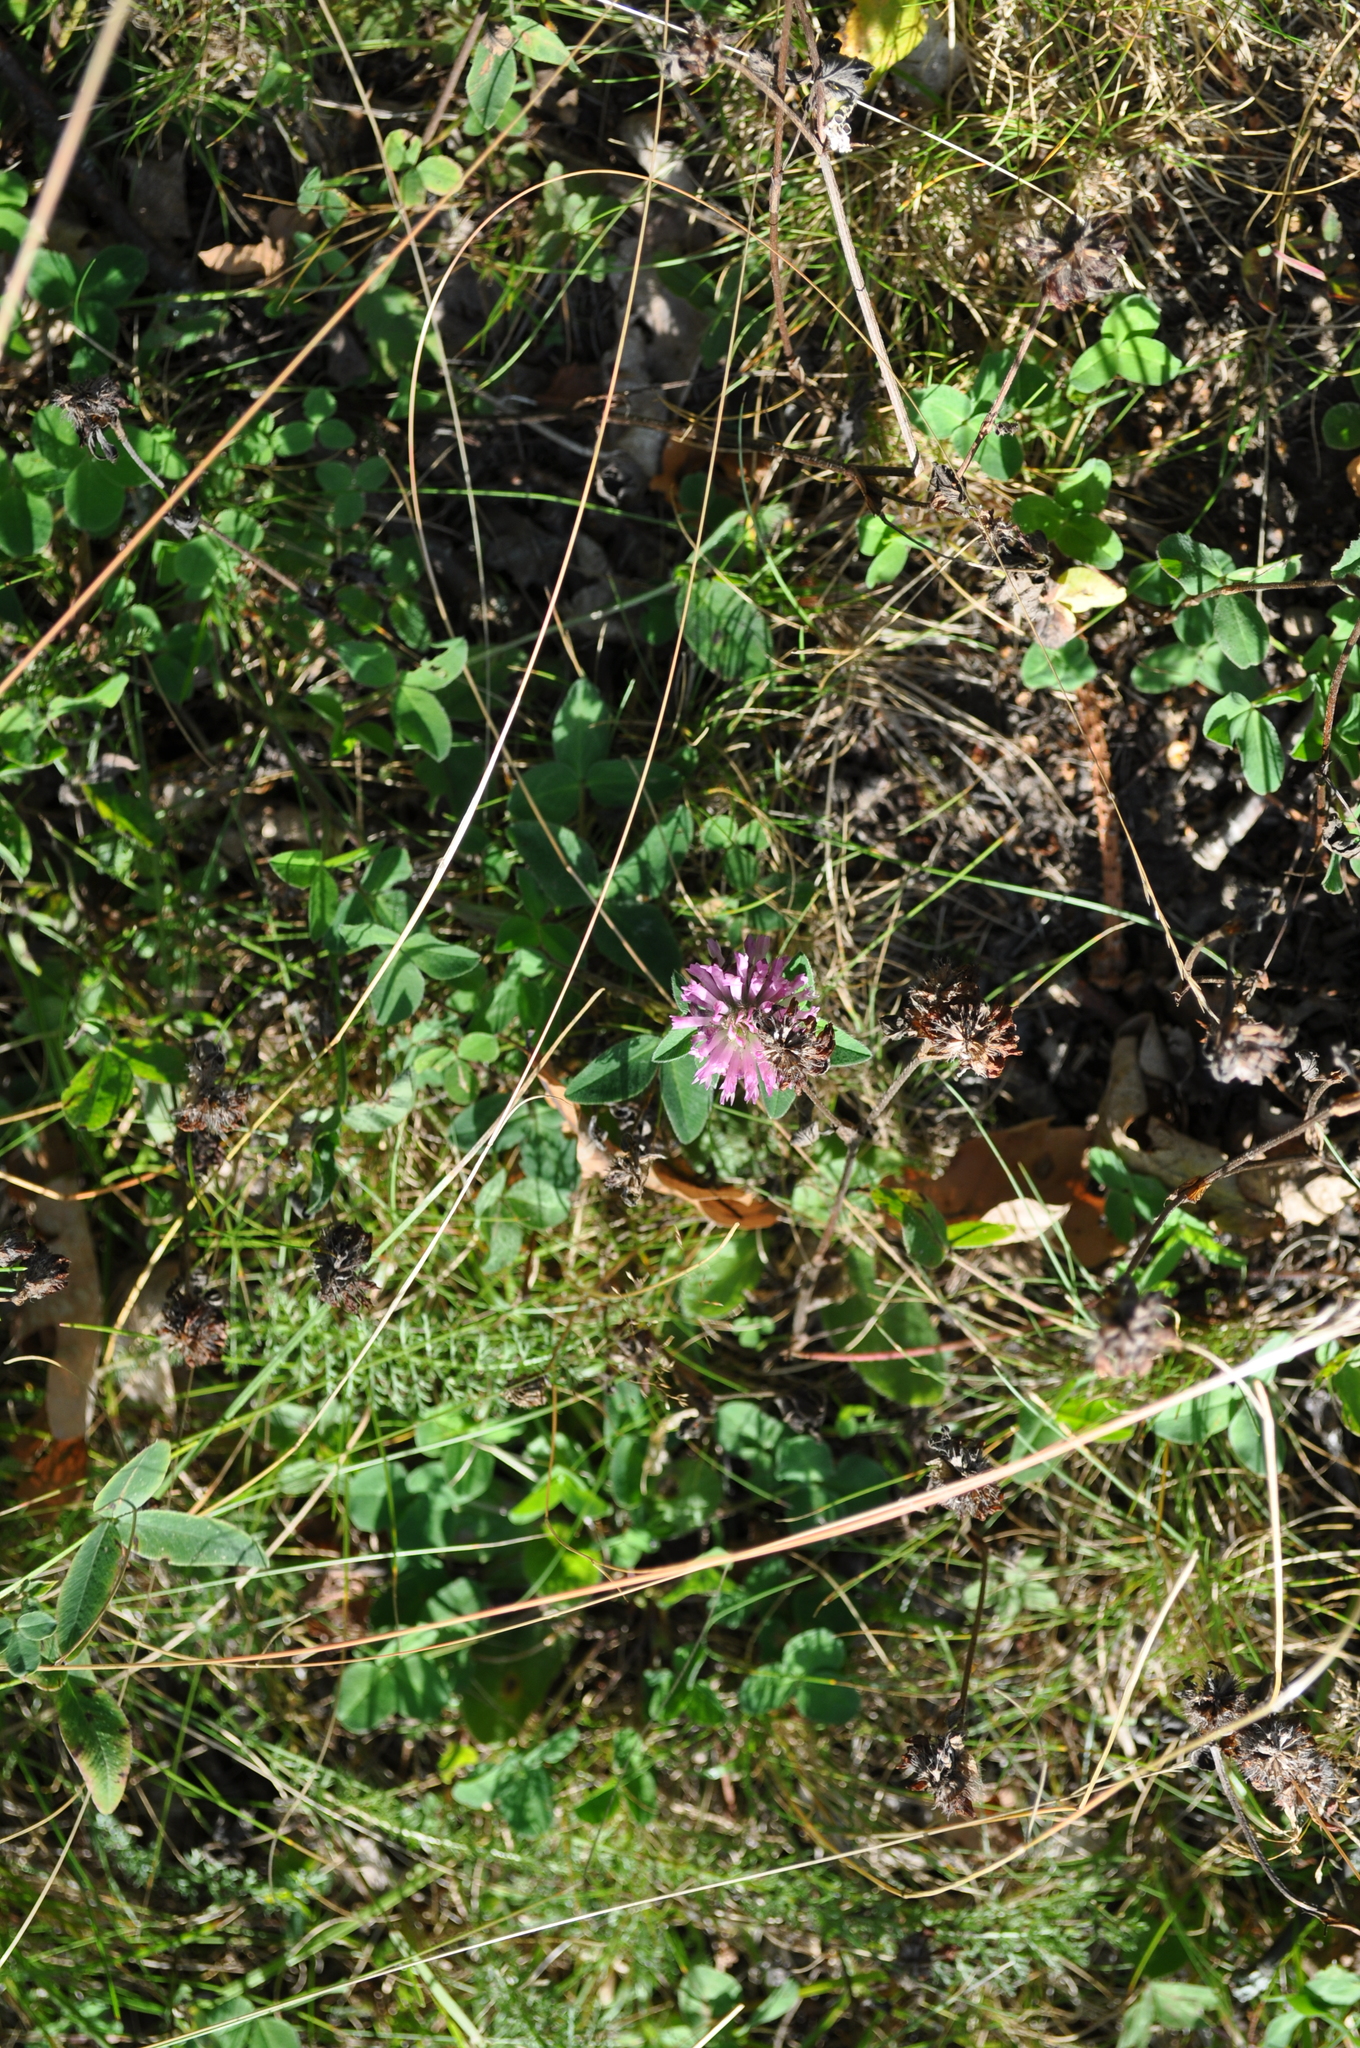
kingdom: Plantae
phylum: Tracheophyta
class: Magnoliopsida
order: Fabales
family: Fabaceae
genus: Trifolium
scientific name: Trifolium pratense
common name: Red clover
